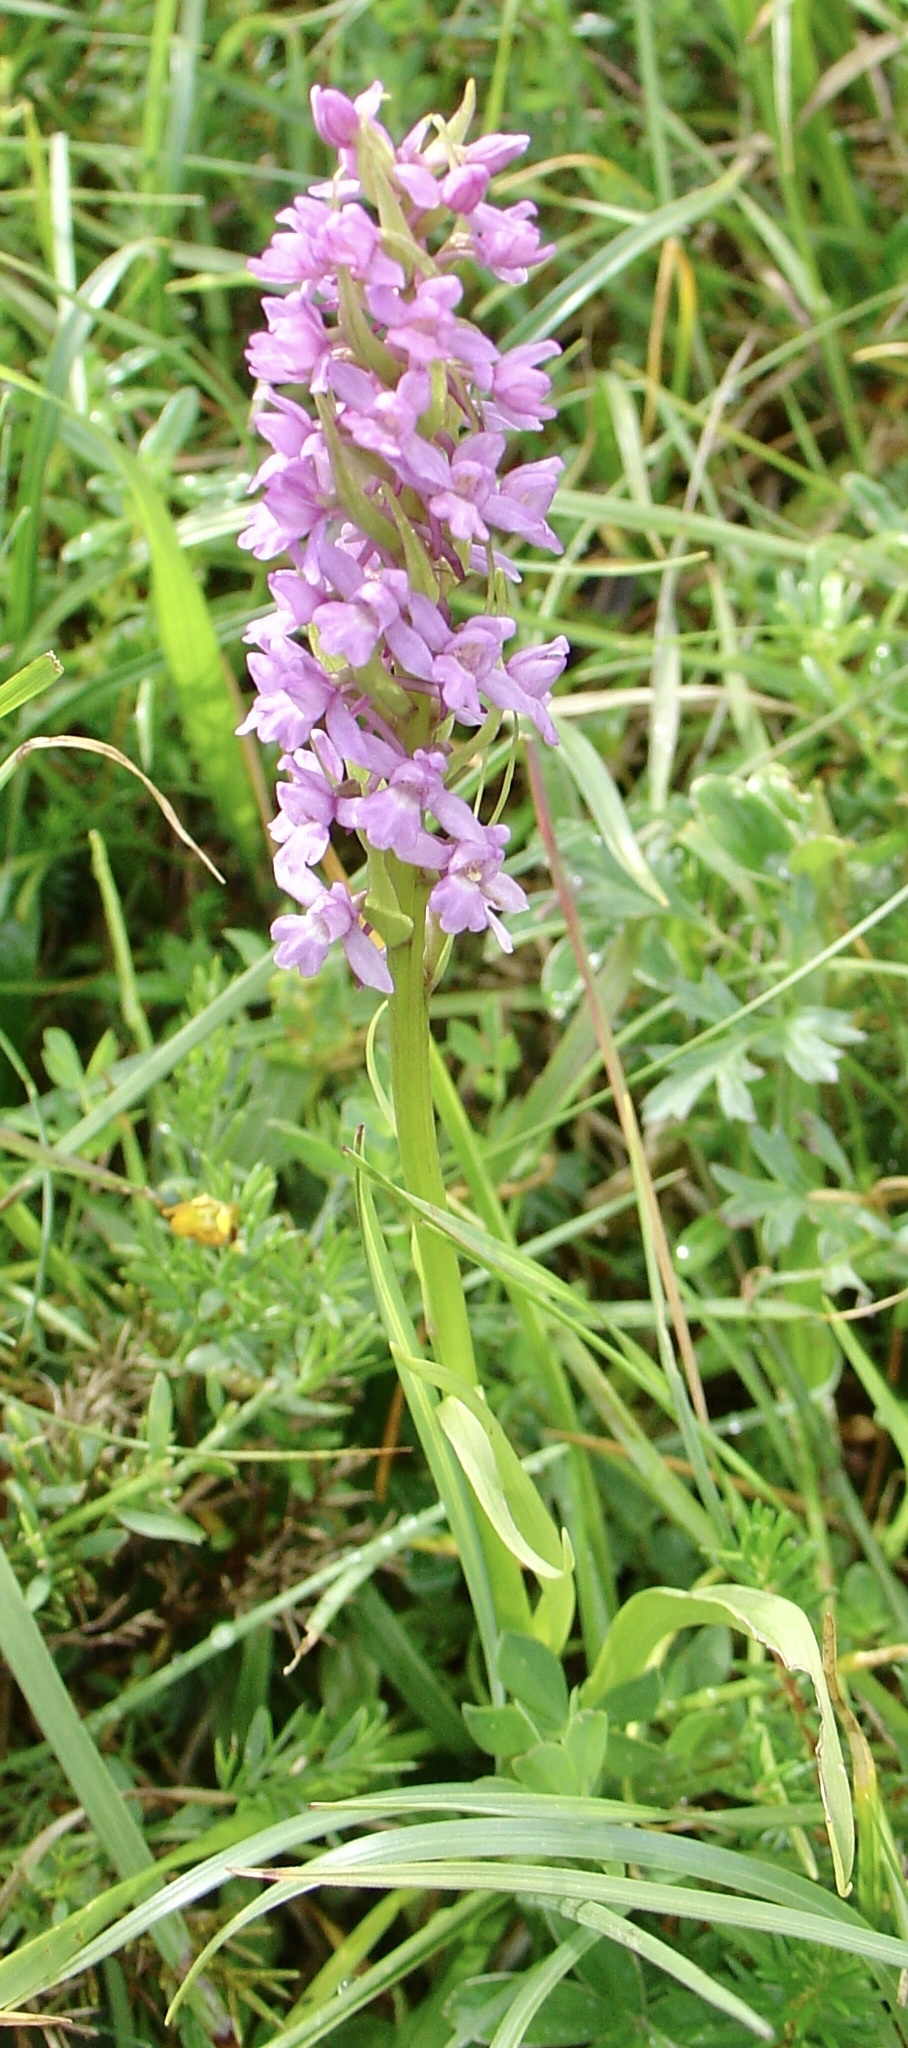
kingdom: Plantae
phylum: Tracheophyta
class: Liliopsida
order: Asparagales
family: Orchidaceae
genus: Gymnadenia
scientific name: Gymnadenia conopsea
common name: Fragrant orchid
